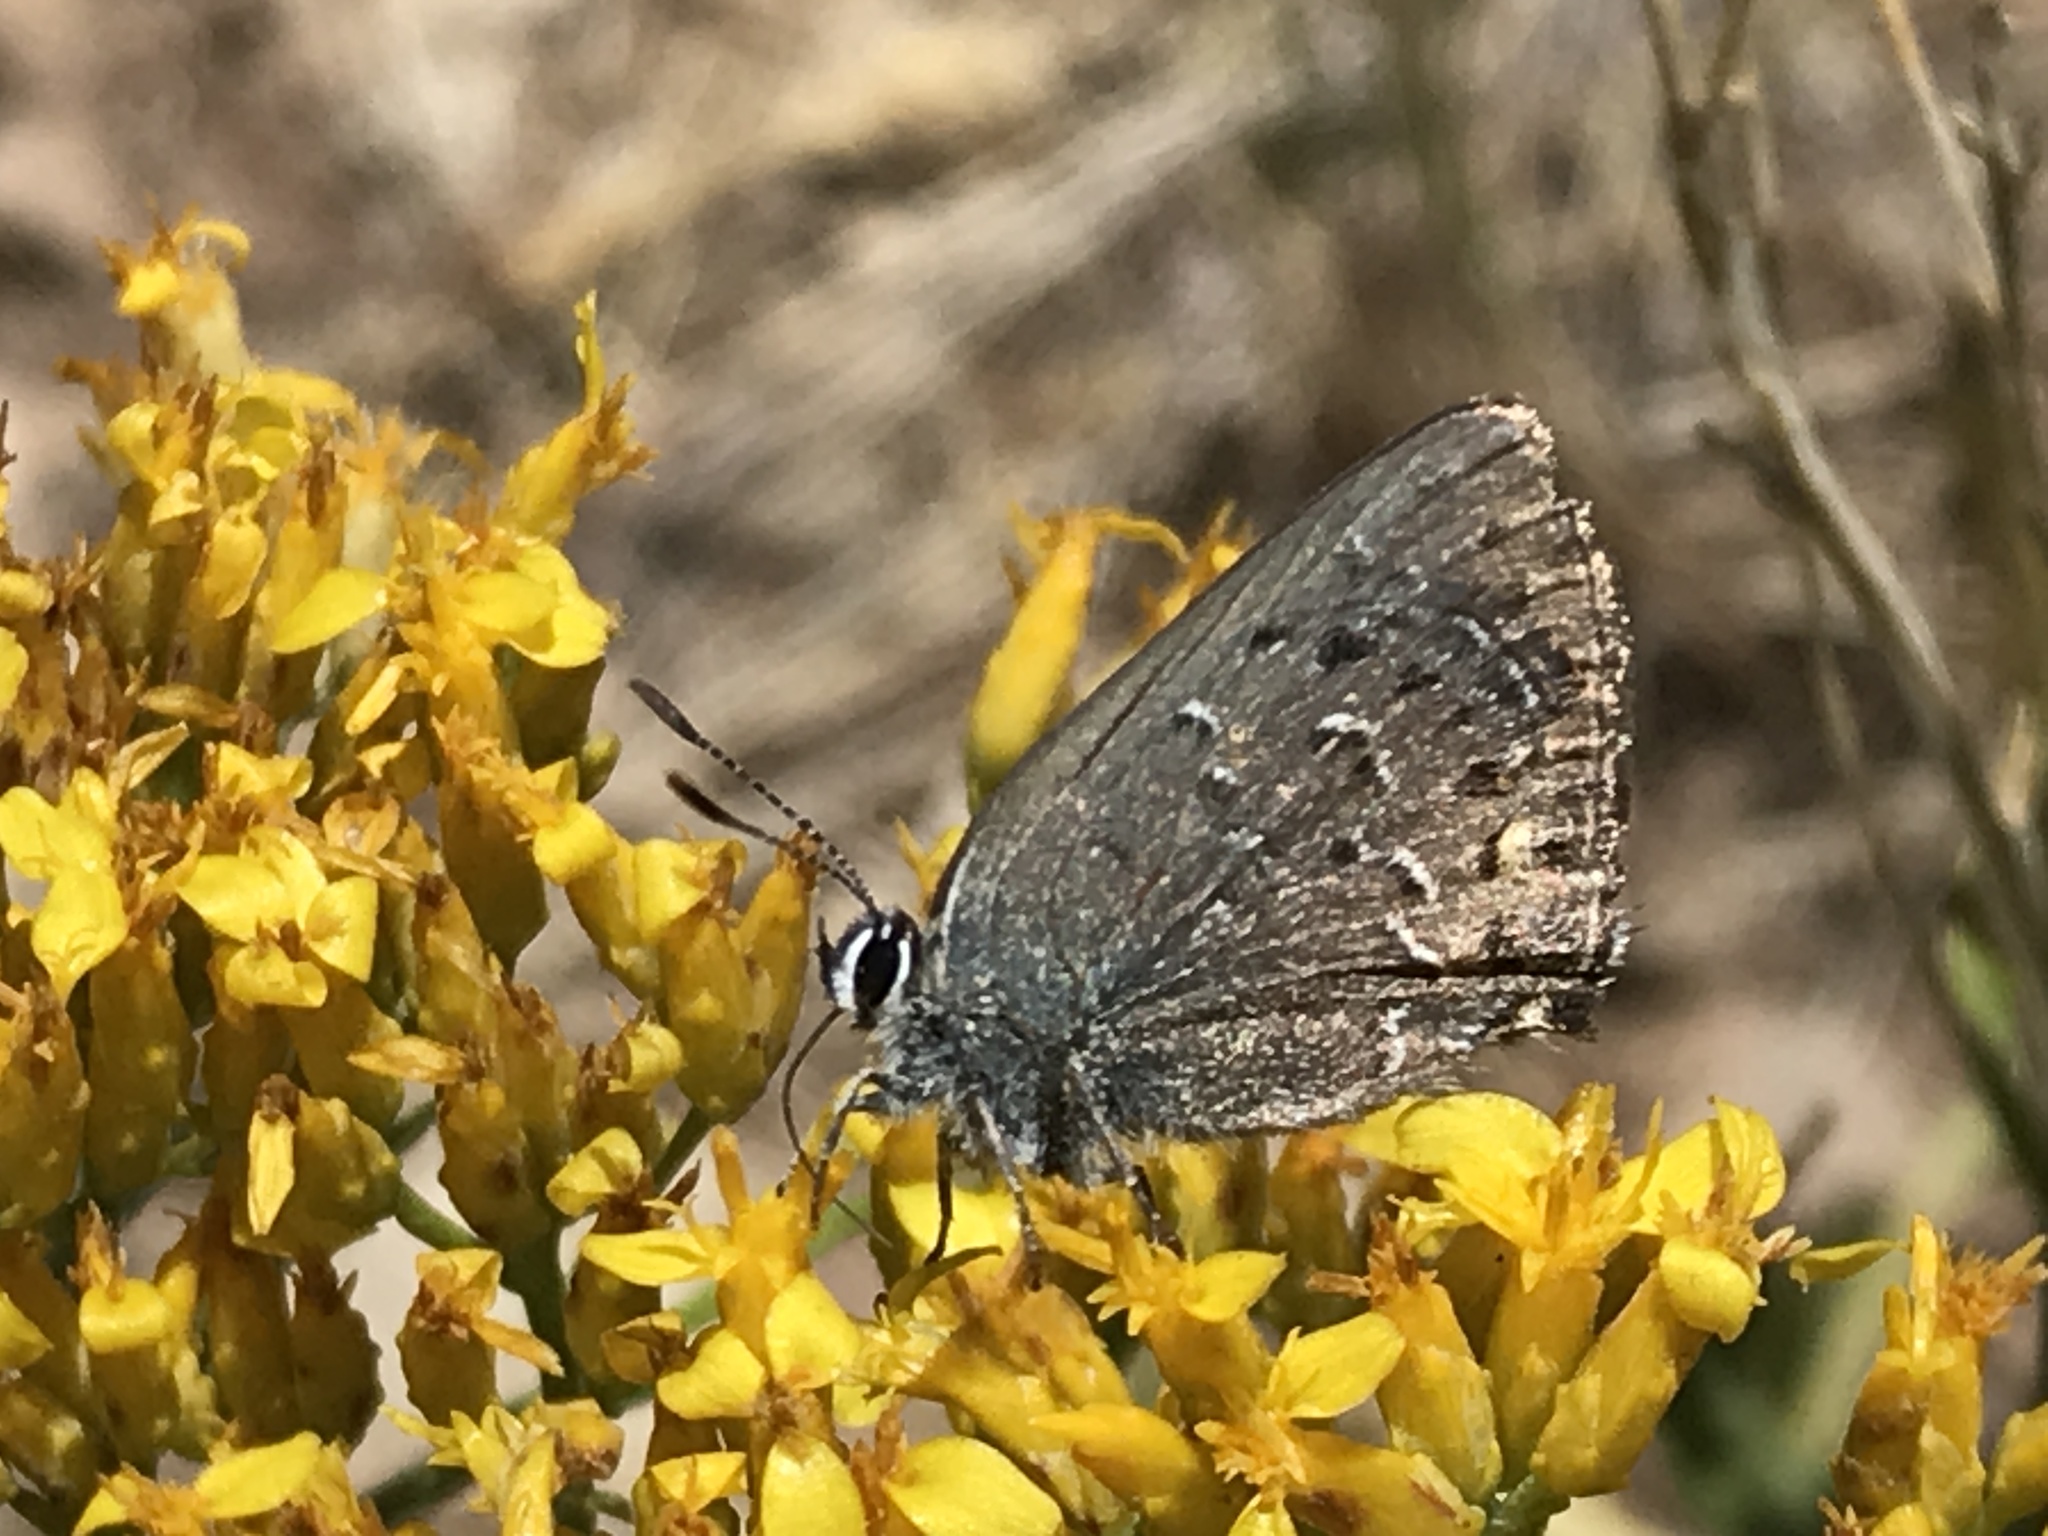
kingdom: Animalia
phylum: Arthropoda
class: Insecta
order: Lepidoptera
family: Lycaenidae
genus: Satyrium
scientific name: Satyrium behrii
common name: Behr's hairstreak
